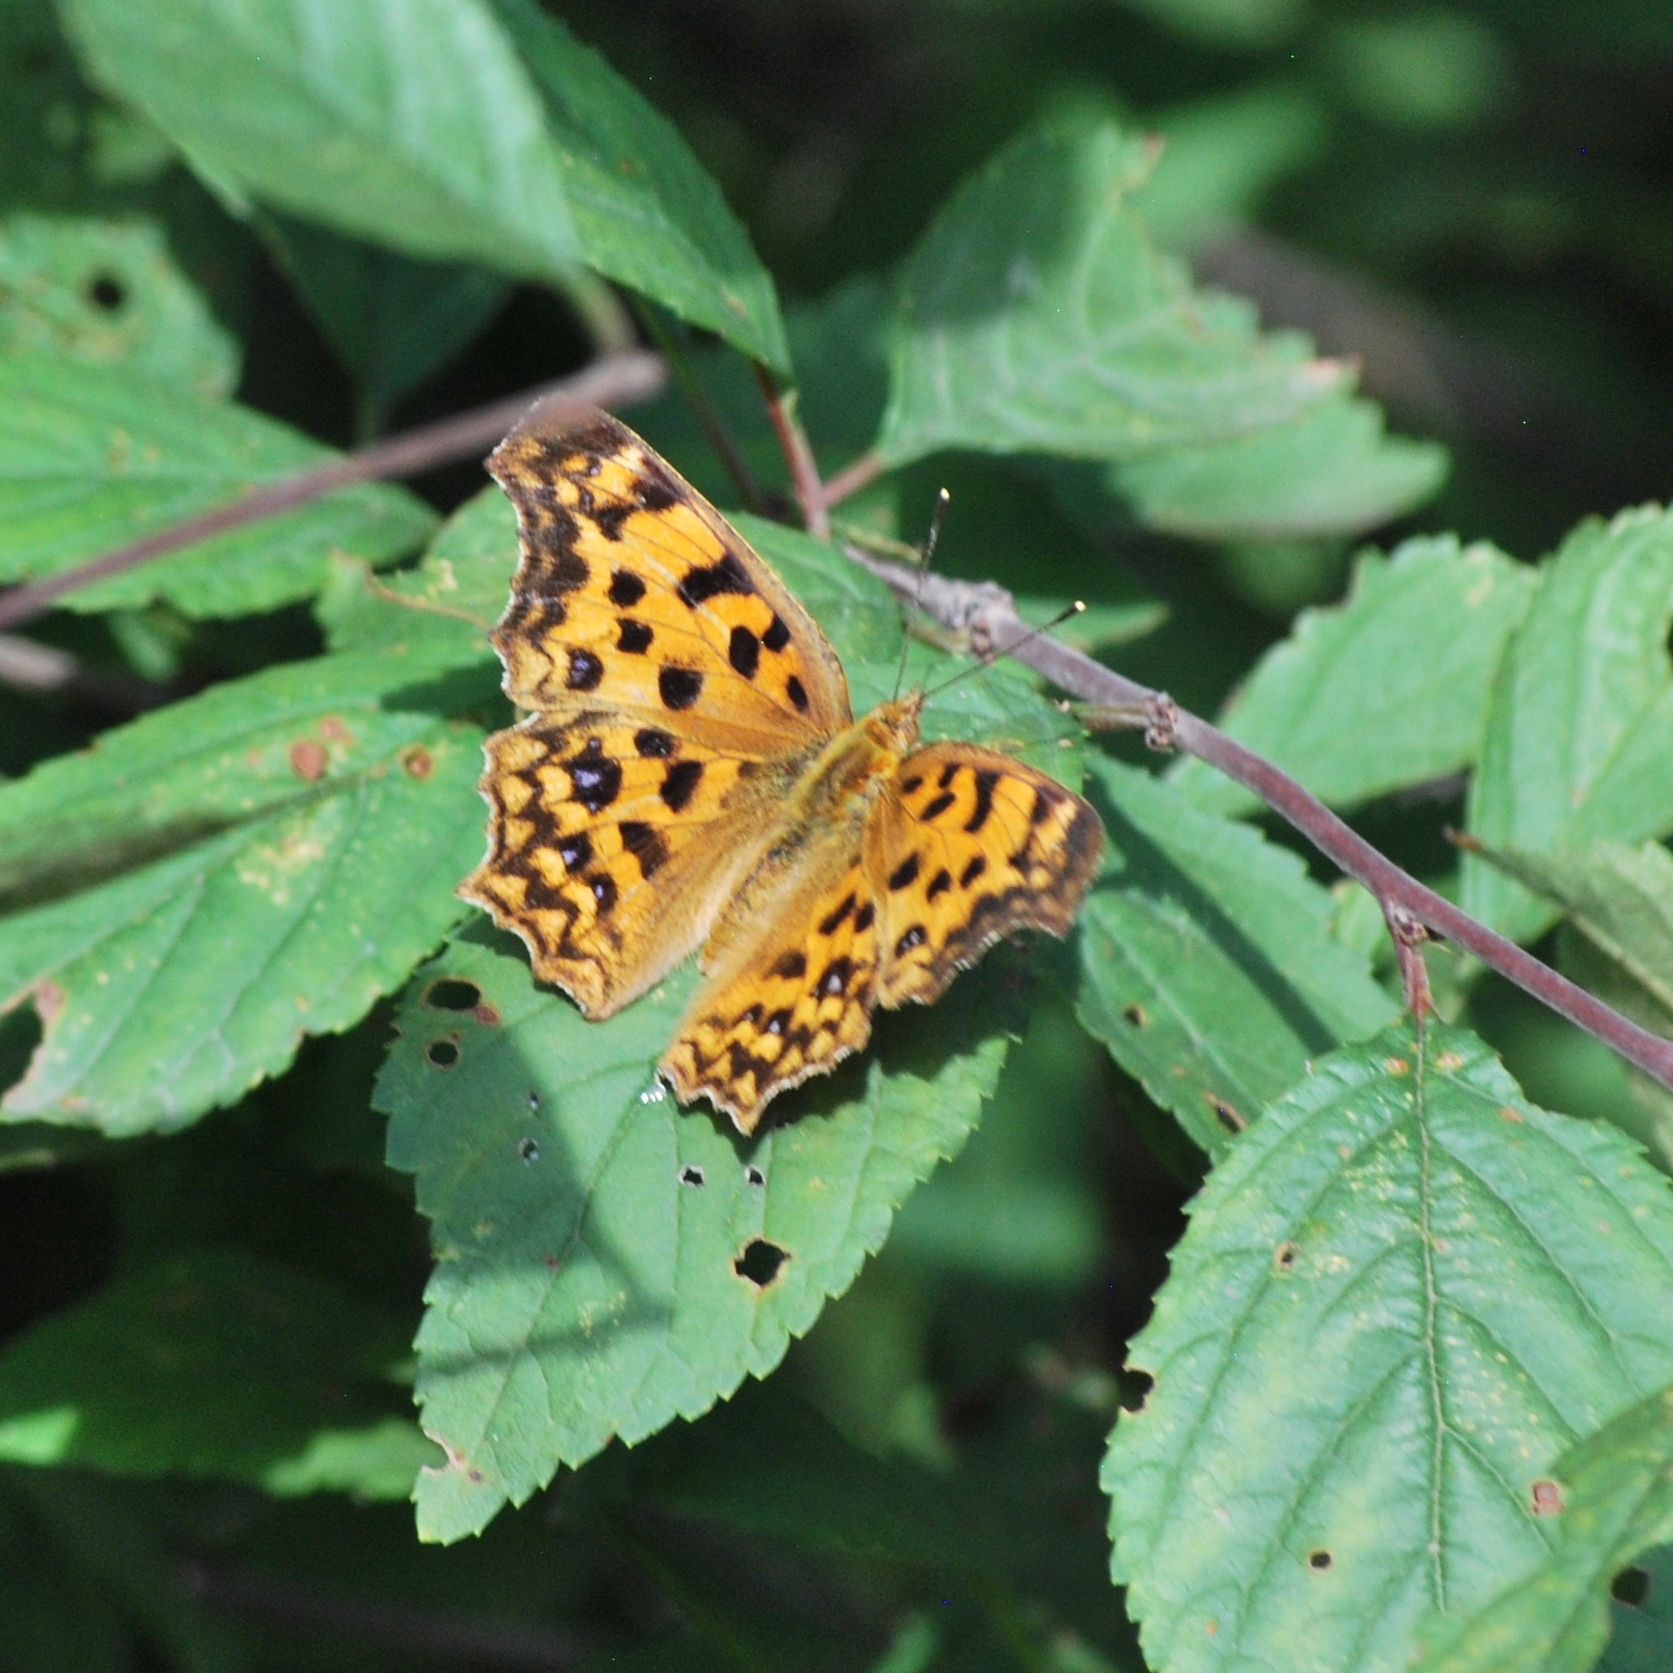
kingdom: Animalia
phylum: Arthropoda
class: Insecta
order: Lepidoptera
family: Nymphalidae
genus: Polygonia
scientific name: Polygonia c-aureum
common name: Asian comma
